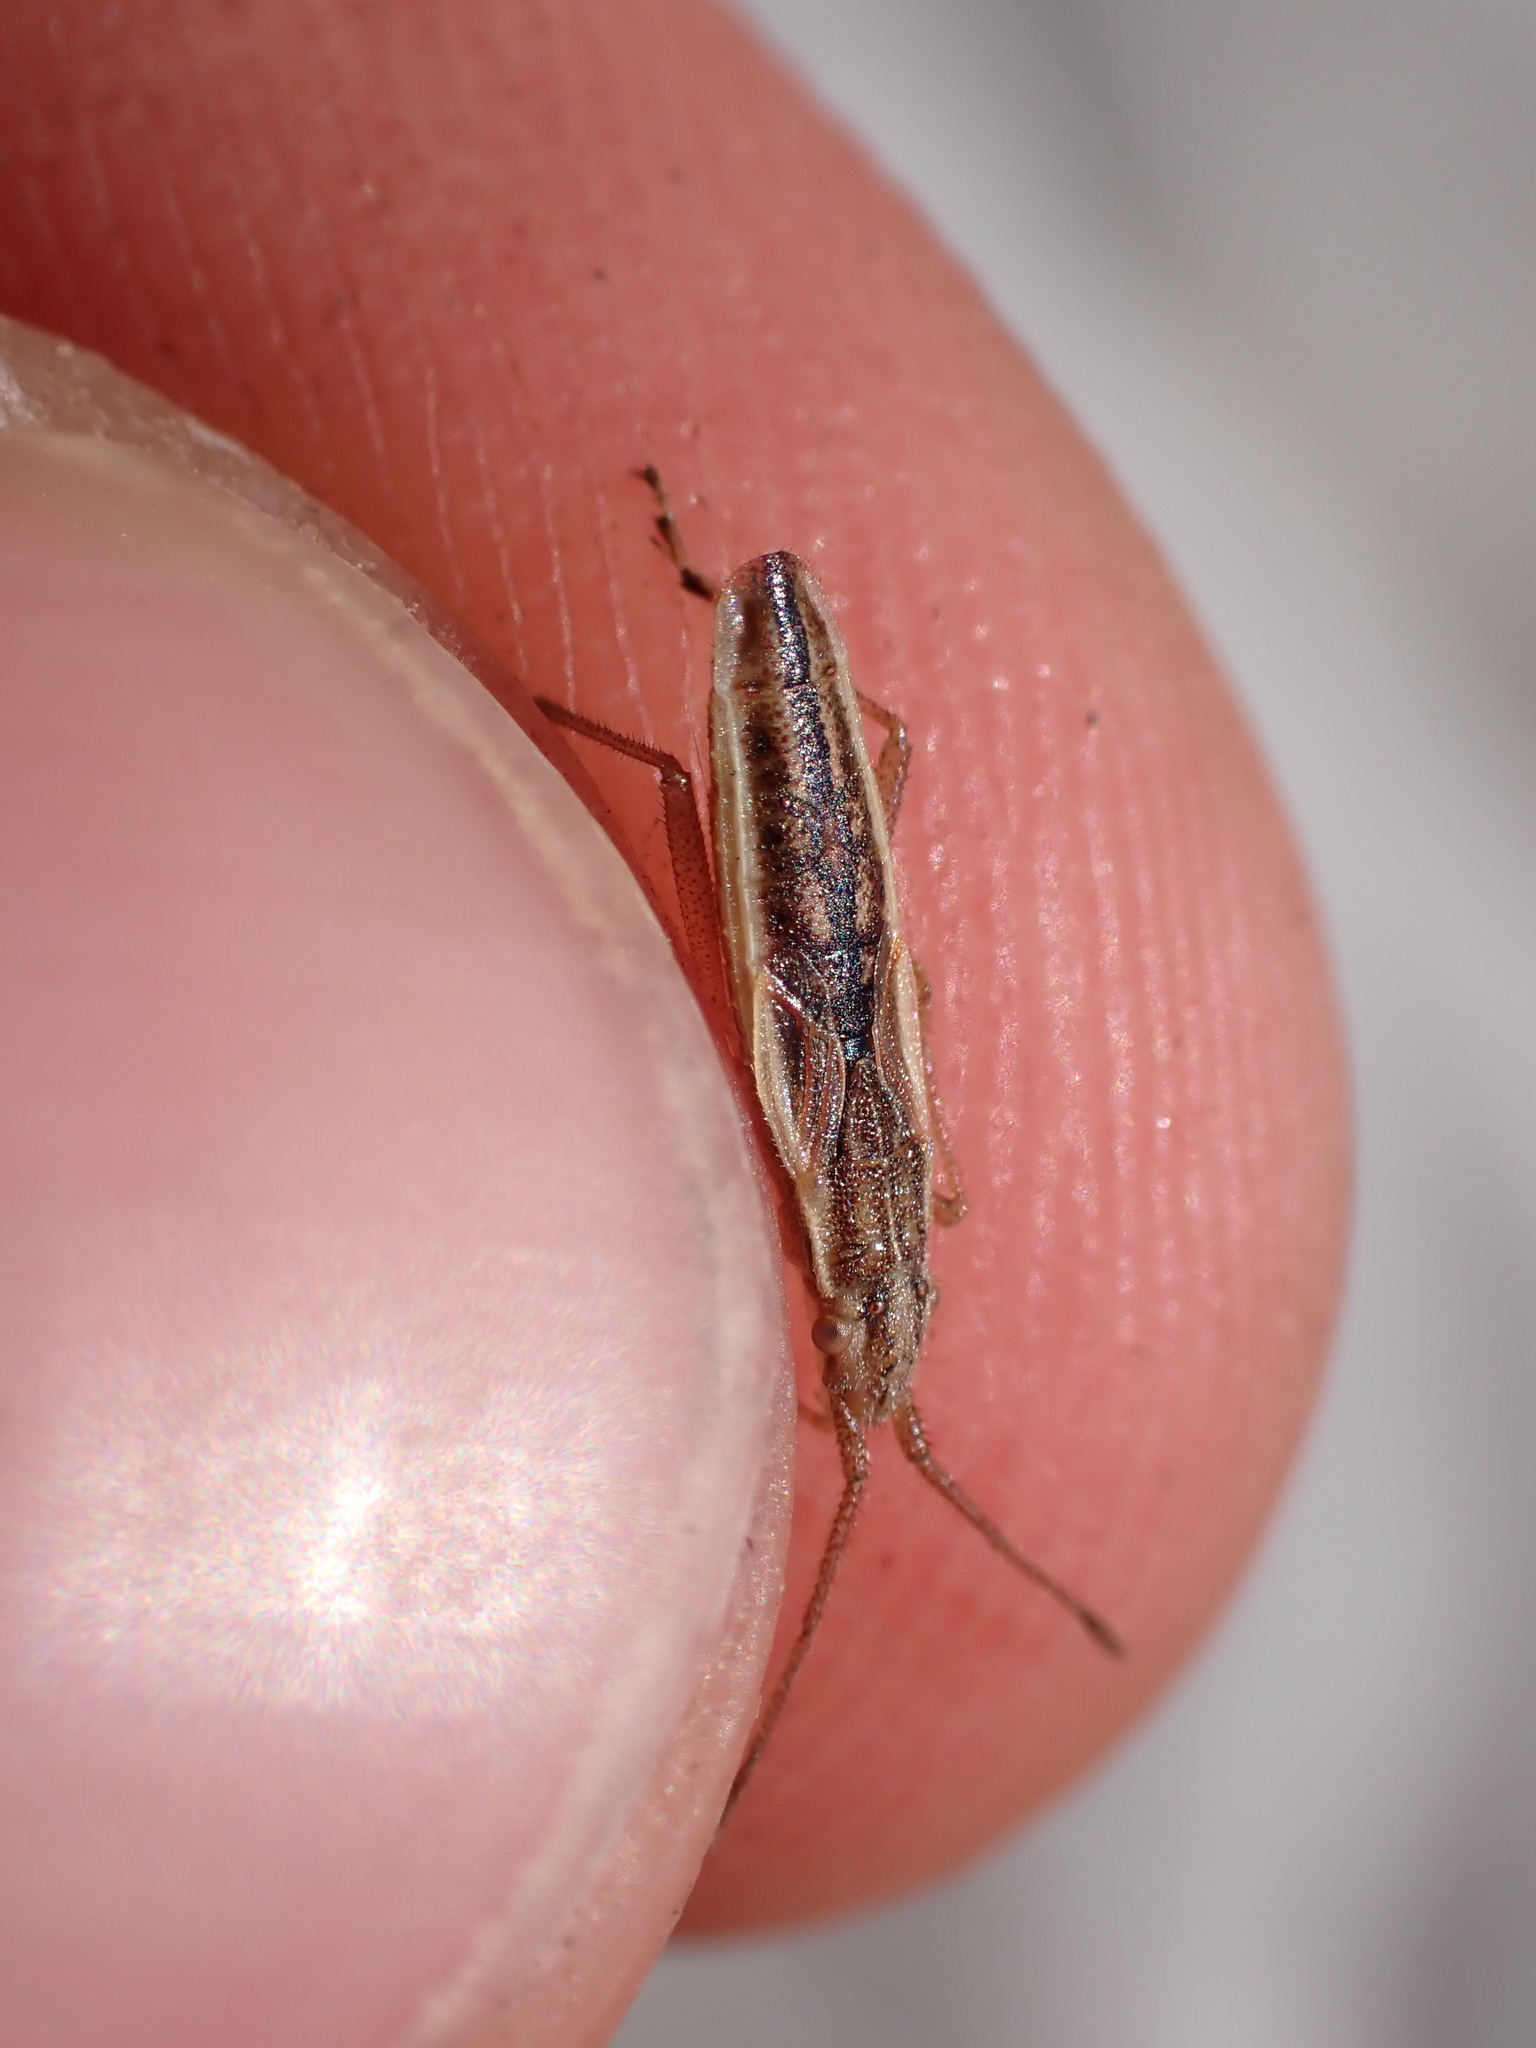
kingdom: Animalia
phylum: Arthropoda
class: Insecta
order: Hemiptera
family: Rhopalidae
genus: Myrmus
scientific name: Myrmus miriformis
